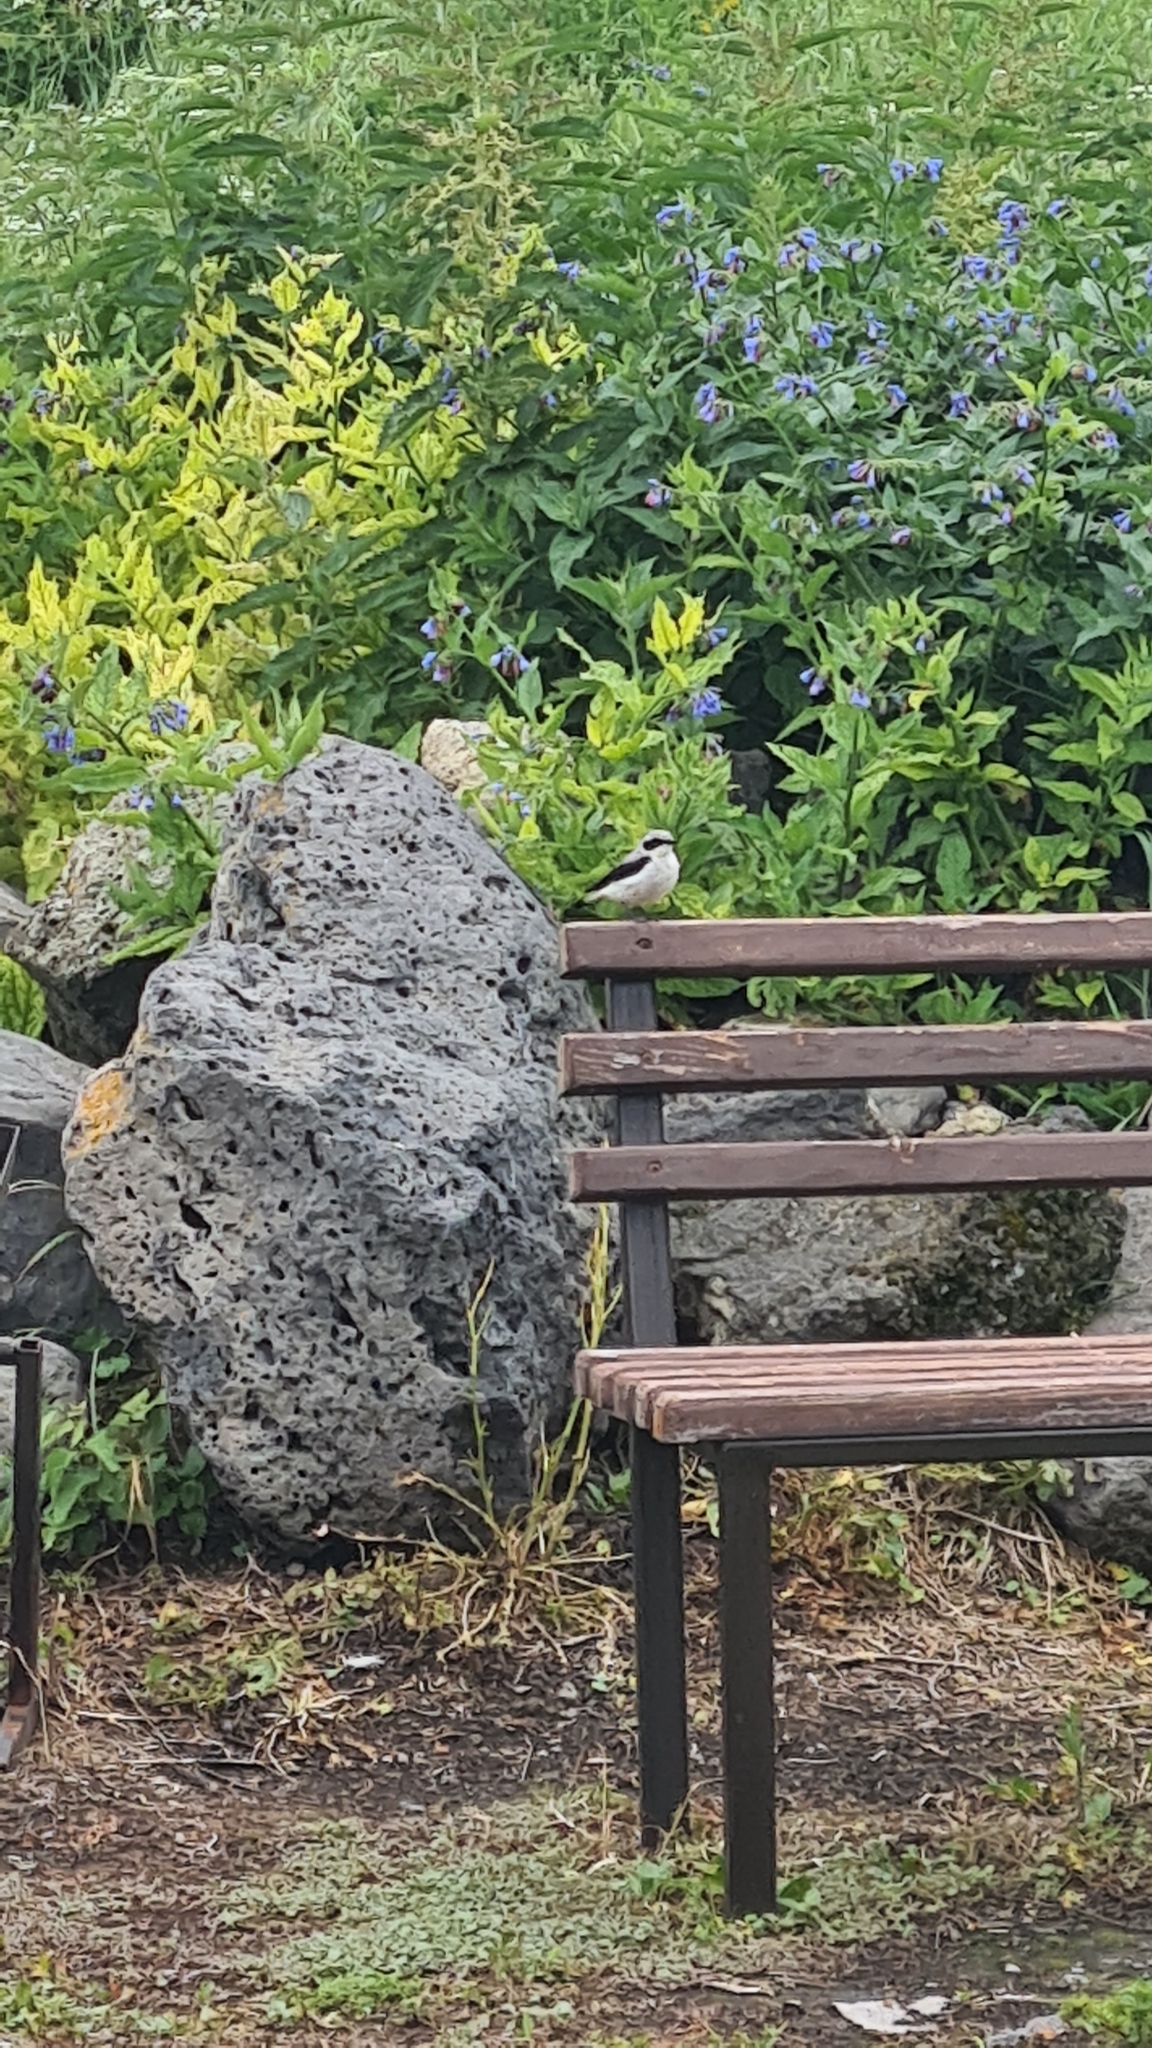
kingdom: Animalia
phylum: Chordata
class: Aves
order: Passeriformes
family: Muscicapidae
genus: Oenanthe
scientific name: Oenanthe oenanthe
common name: Northern wheatear
